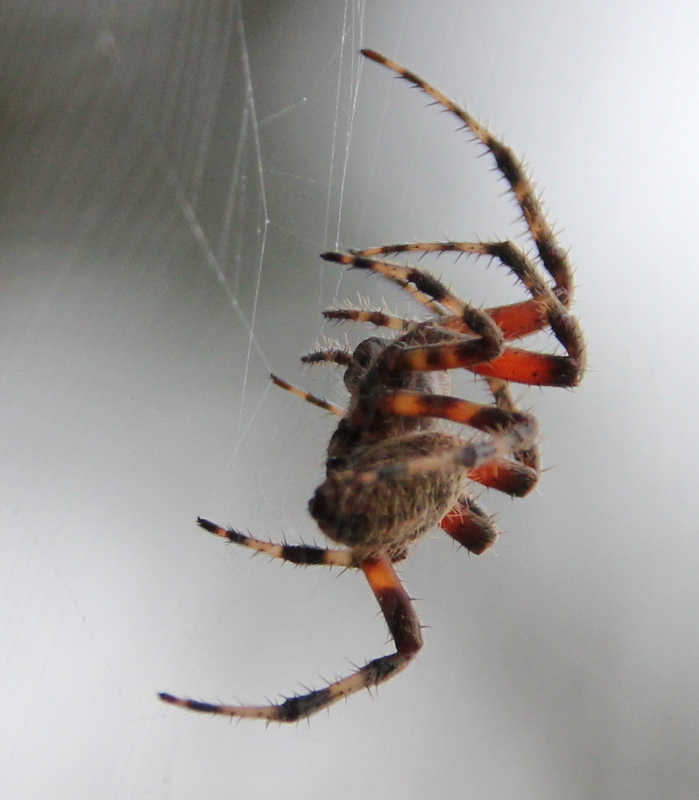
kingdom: Animalia
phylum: Arthropoda
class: Arachnida
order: Araneae
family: Araneidae
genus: Neoscona
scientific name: Neoscona crucifera
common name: Spotted orbweaver
